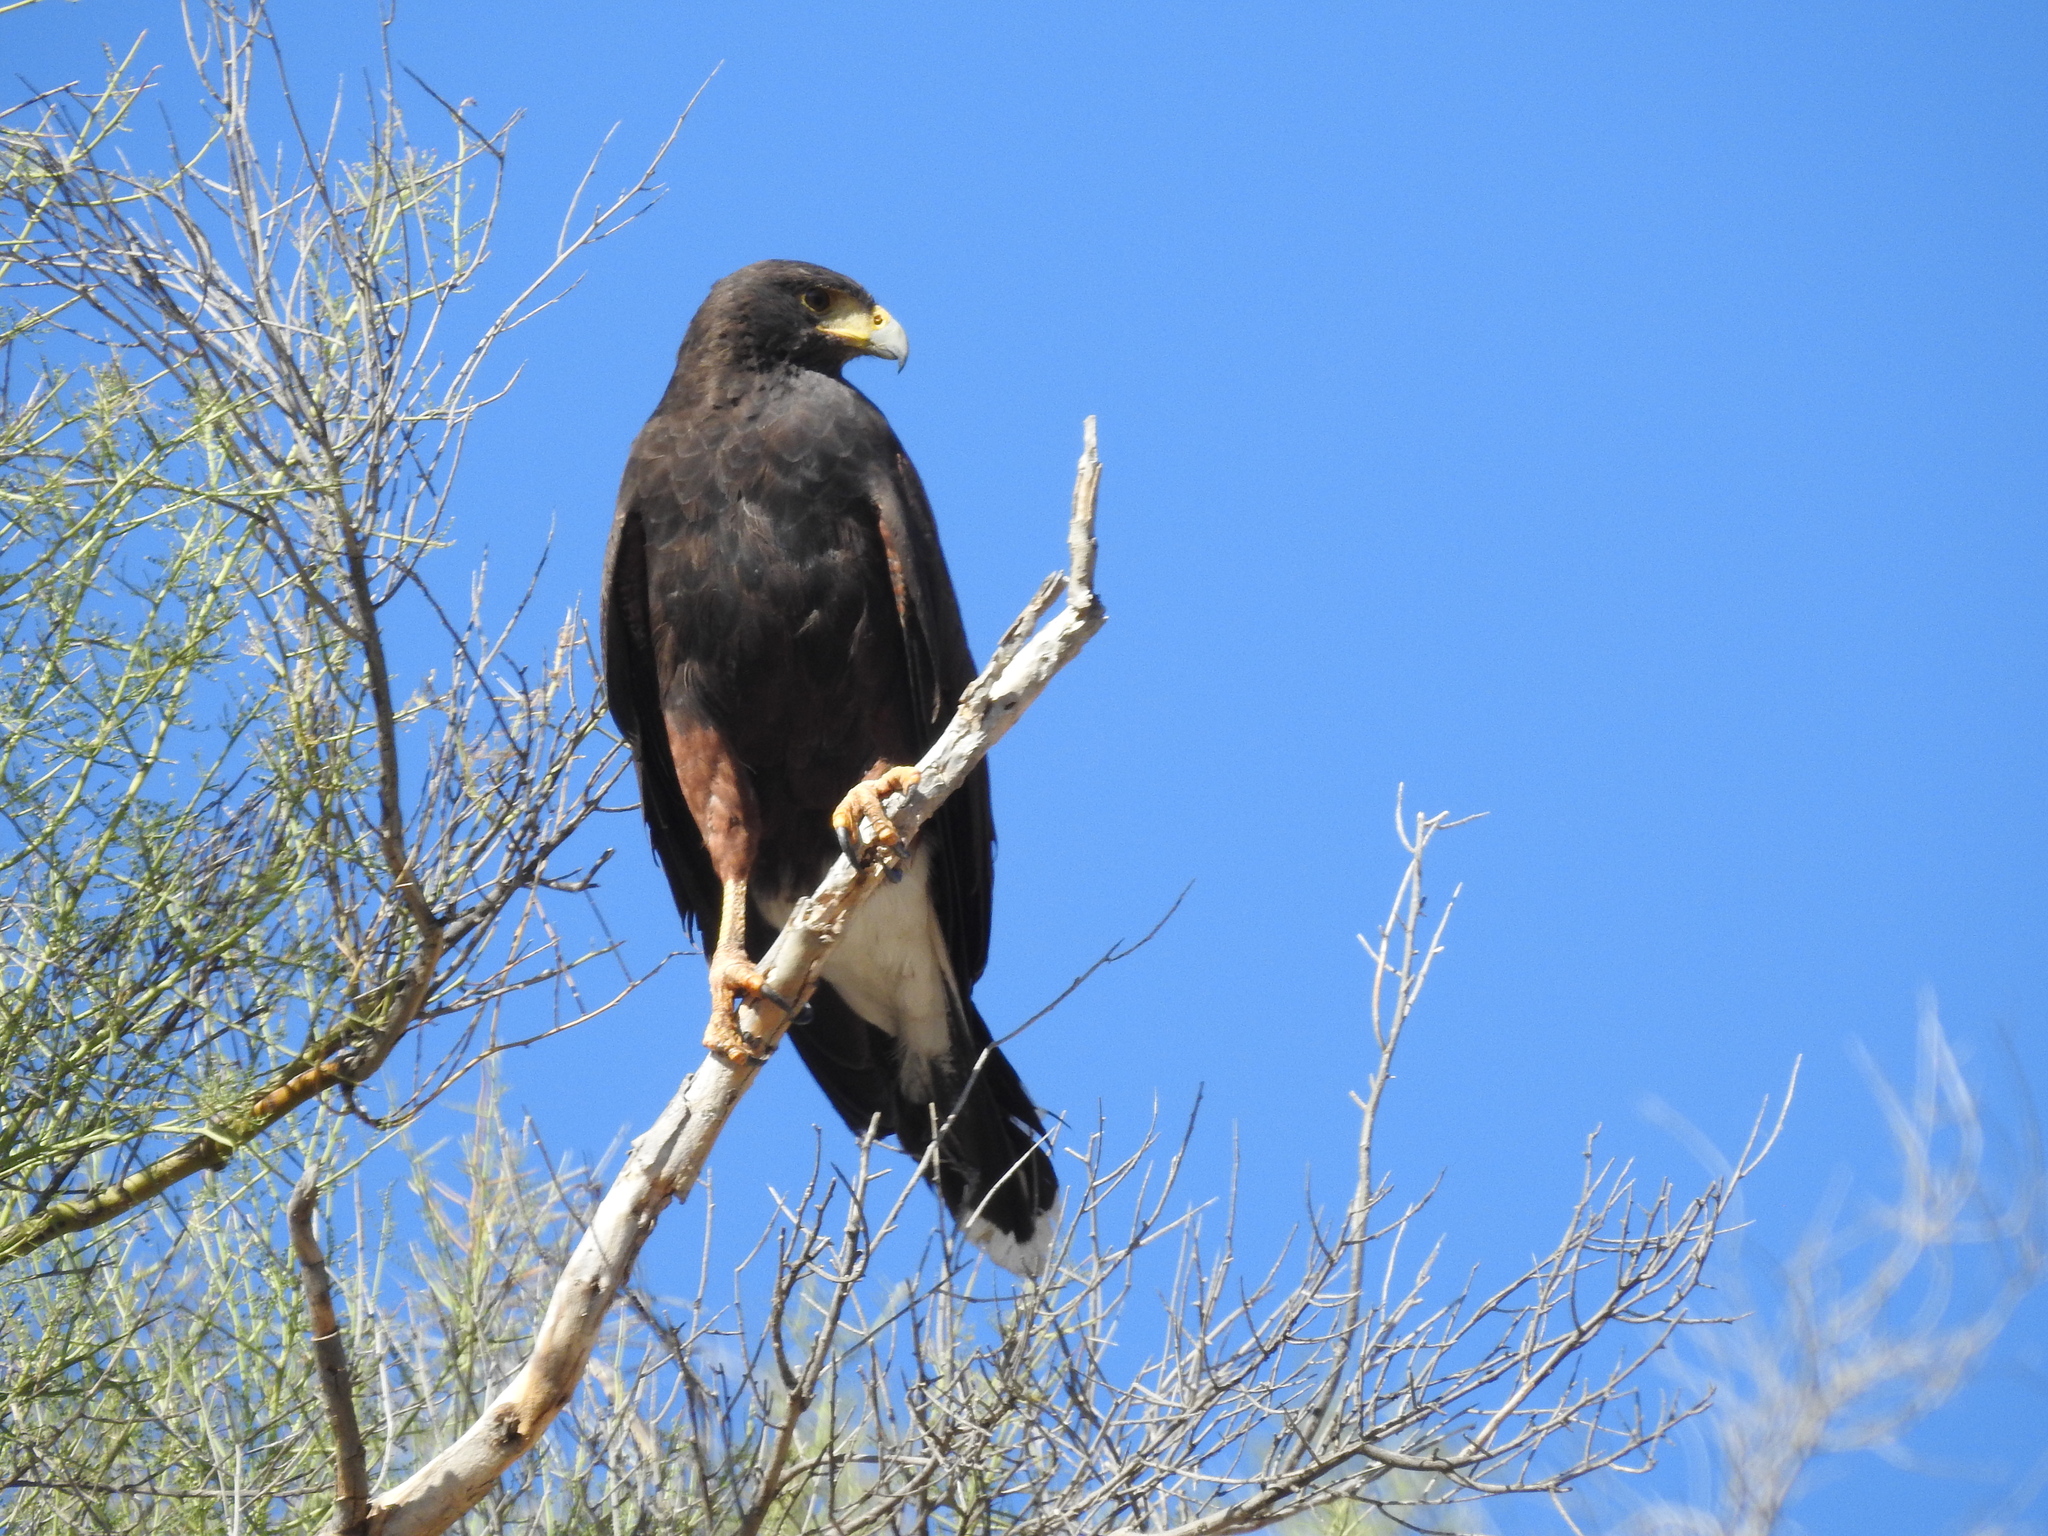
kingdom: Animalia
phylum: Chordata
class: Aves
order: Accipitriformes
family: Accipitridae
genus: Parabuteo
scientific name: Parabuteo unicinctus
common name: Harris's hawk
